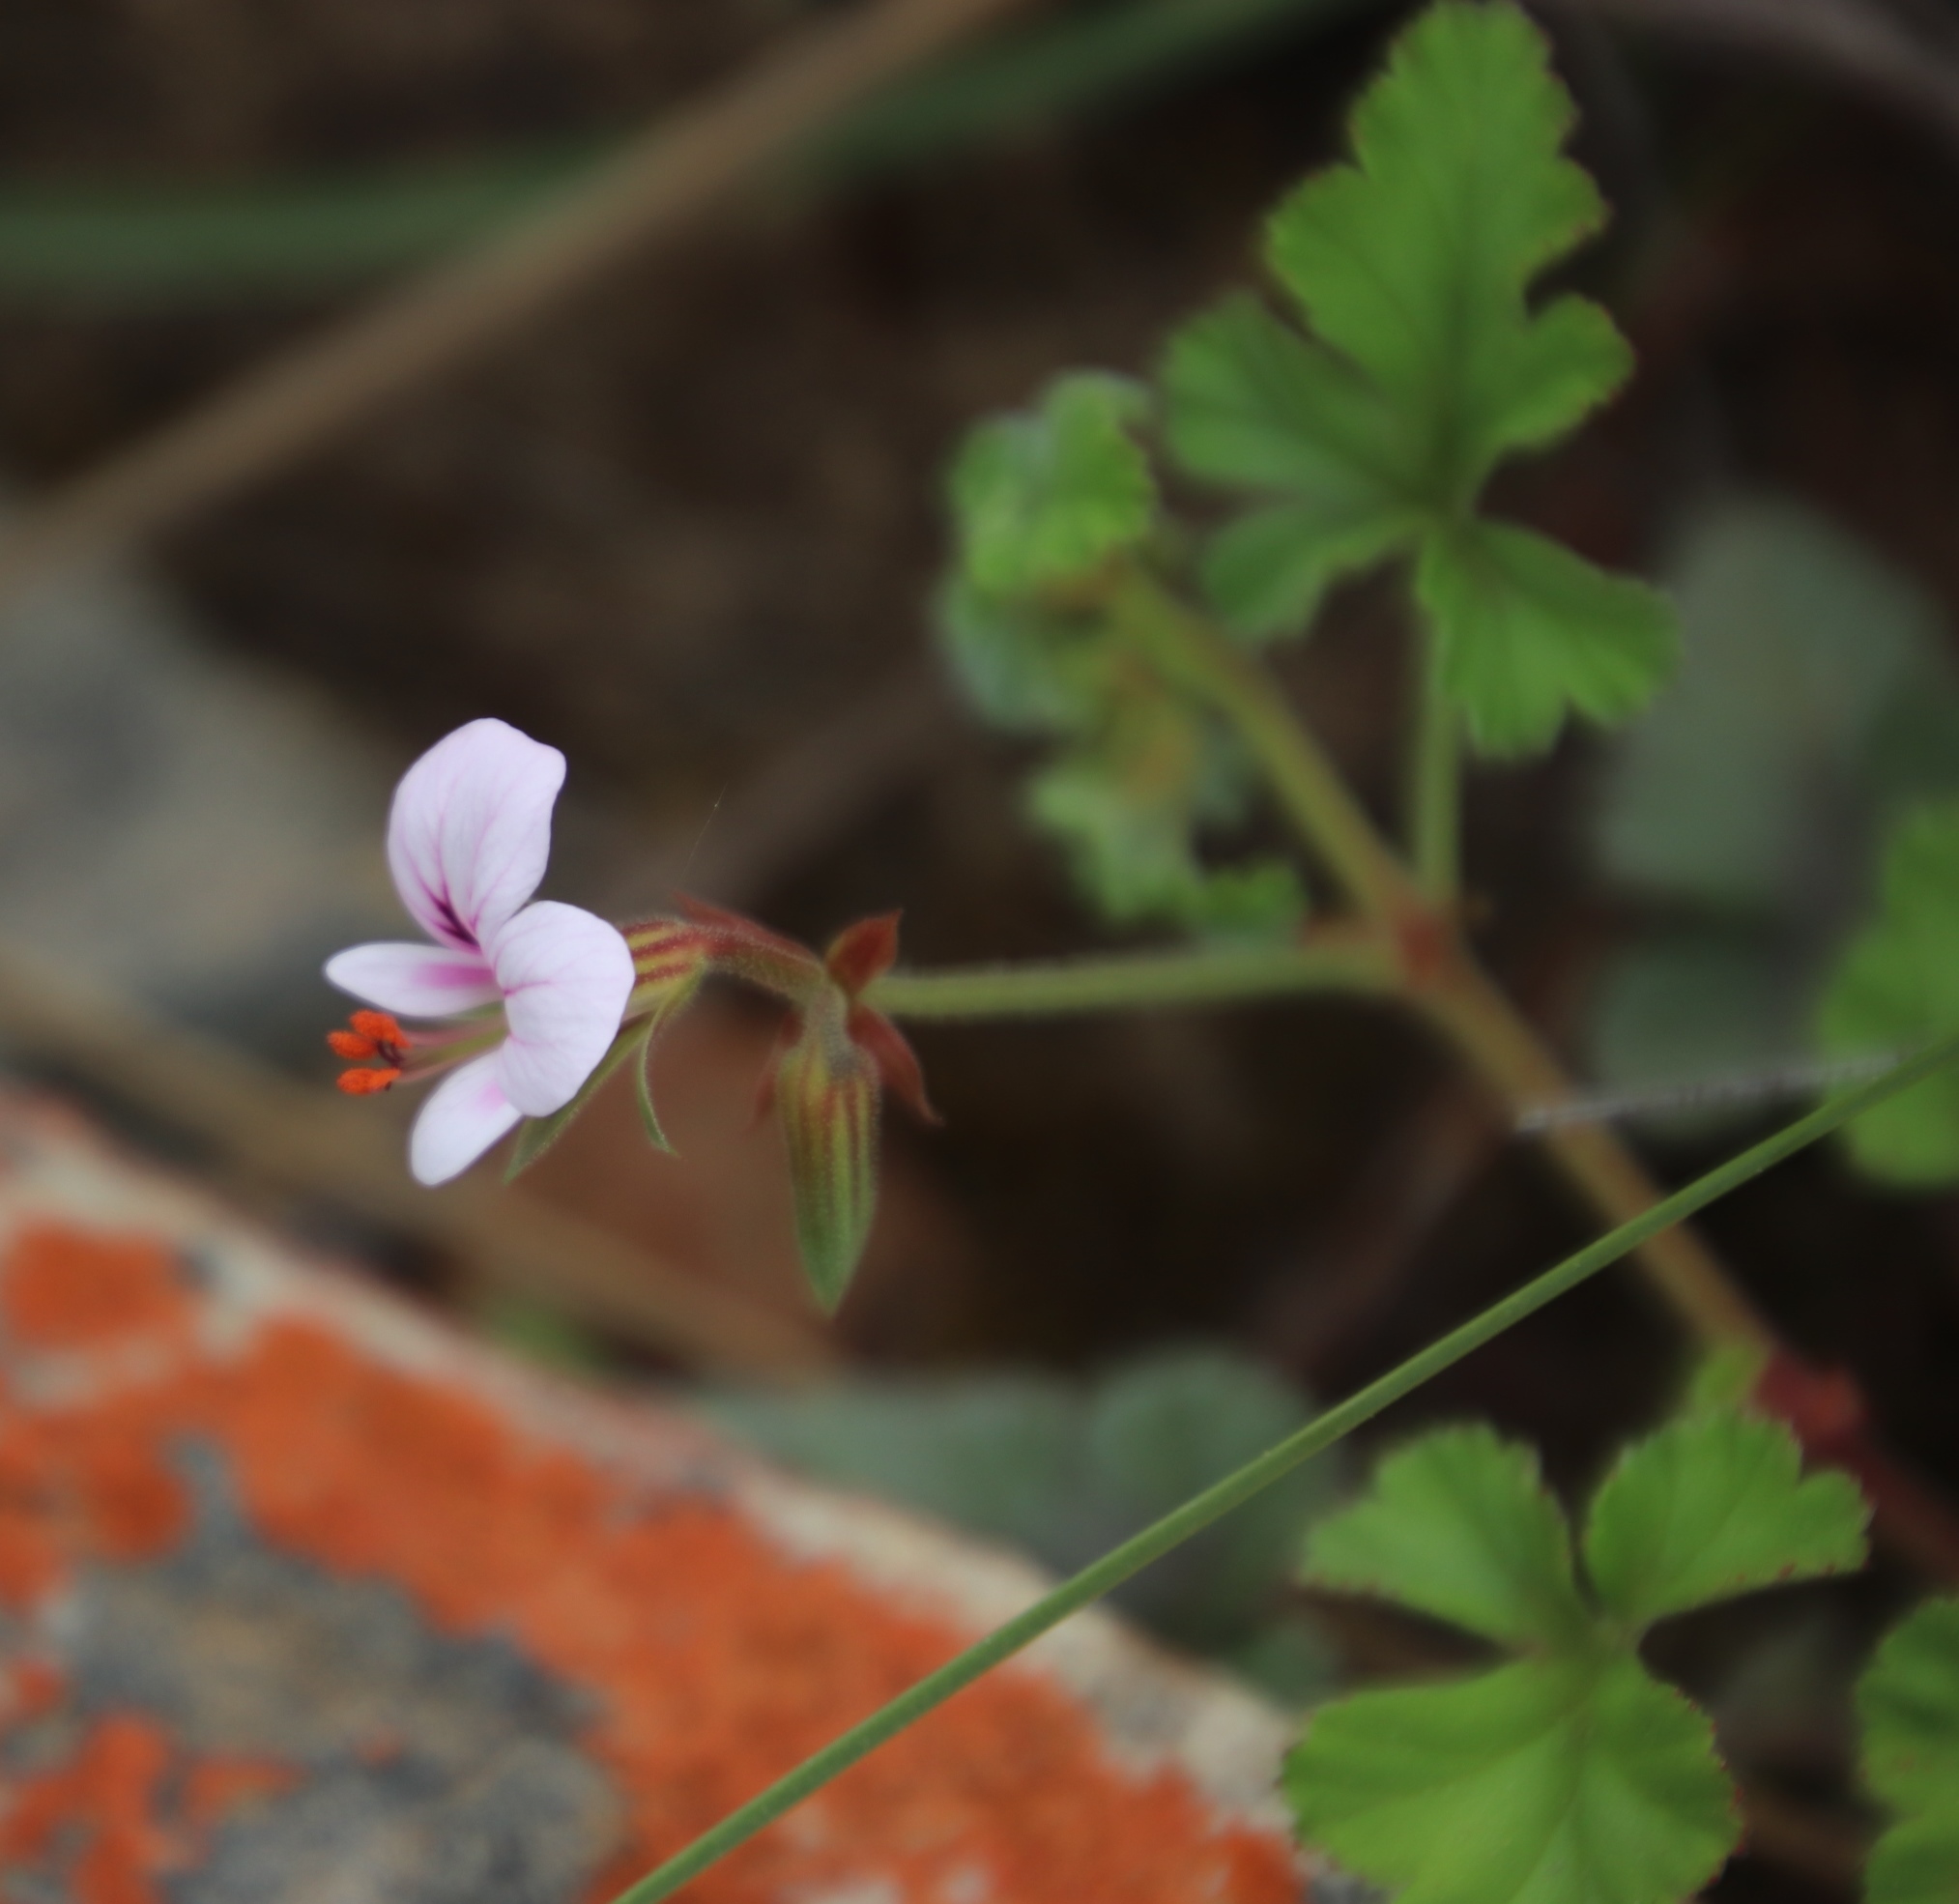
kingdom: Plantae
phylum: Tracheophyta
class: Magnoliopsida
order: Geraniales
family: Geraniaceae
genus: Pelargonium
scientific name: Pelargonium candicans
